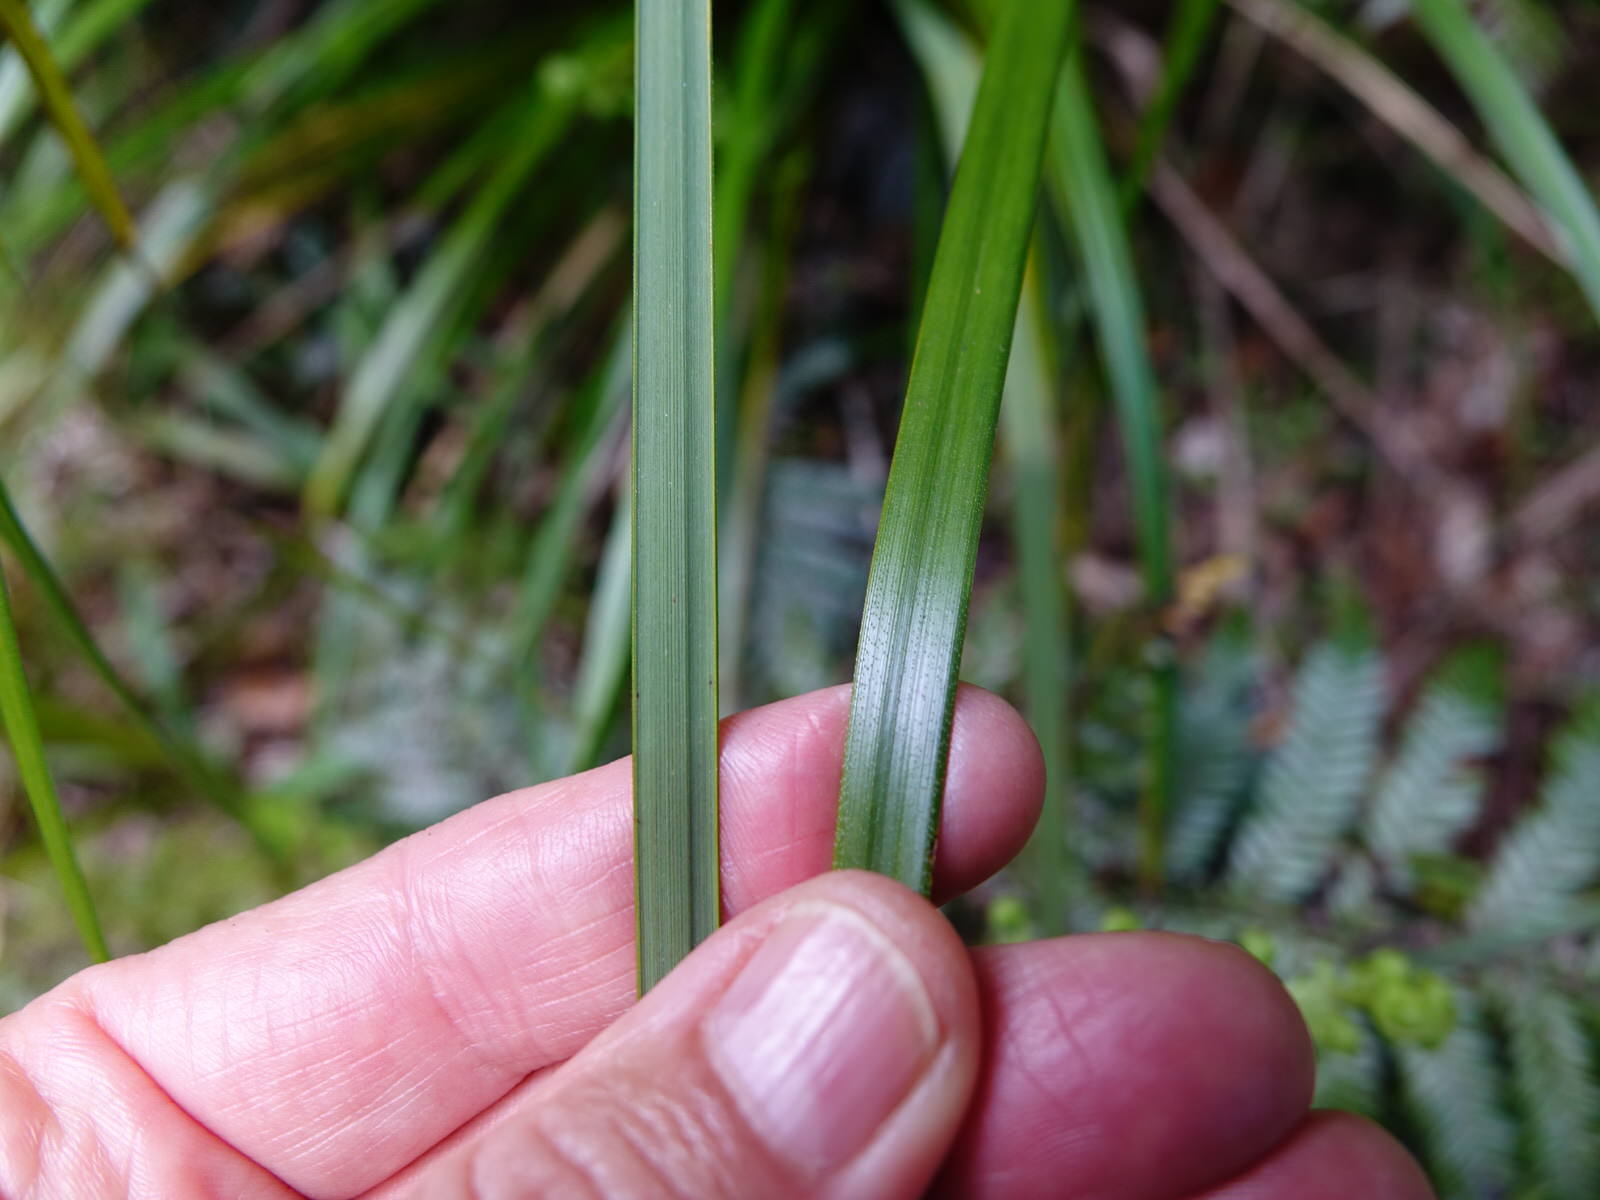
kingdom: Plantae
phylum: Tracheophyta
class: Liliopsida
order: Poales
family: Cyperaceae
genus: Gahnia
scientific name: Gahnia lacera
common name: Sawsedge
